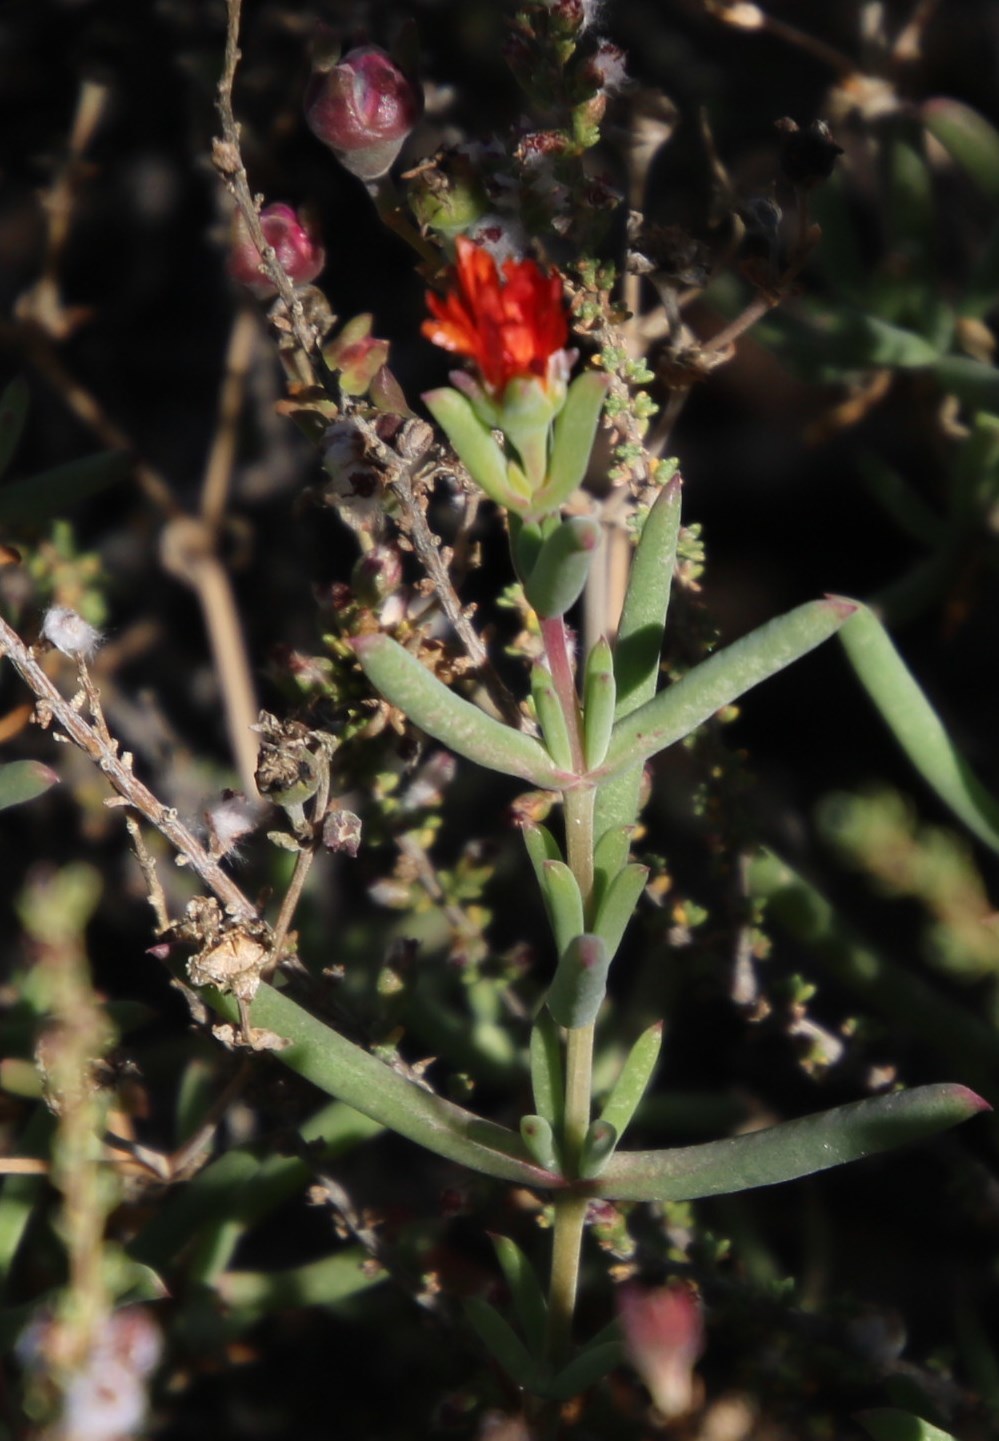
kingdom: Plantae
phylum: Tracheophyta
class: Magnoliopsida
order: Caryophyllales
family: Aizoaceae
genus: Delosperma
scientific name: Delosperma ornatulum
